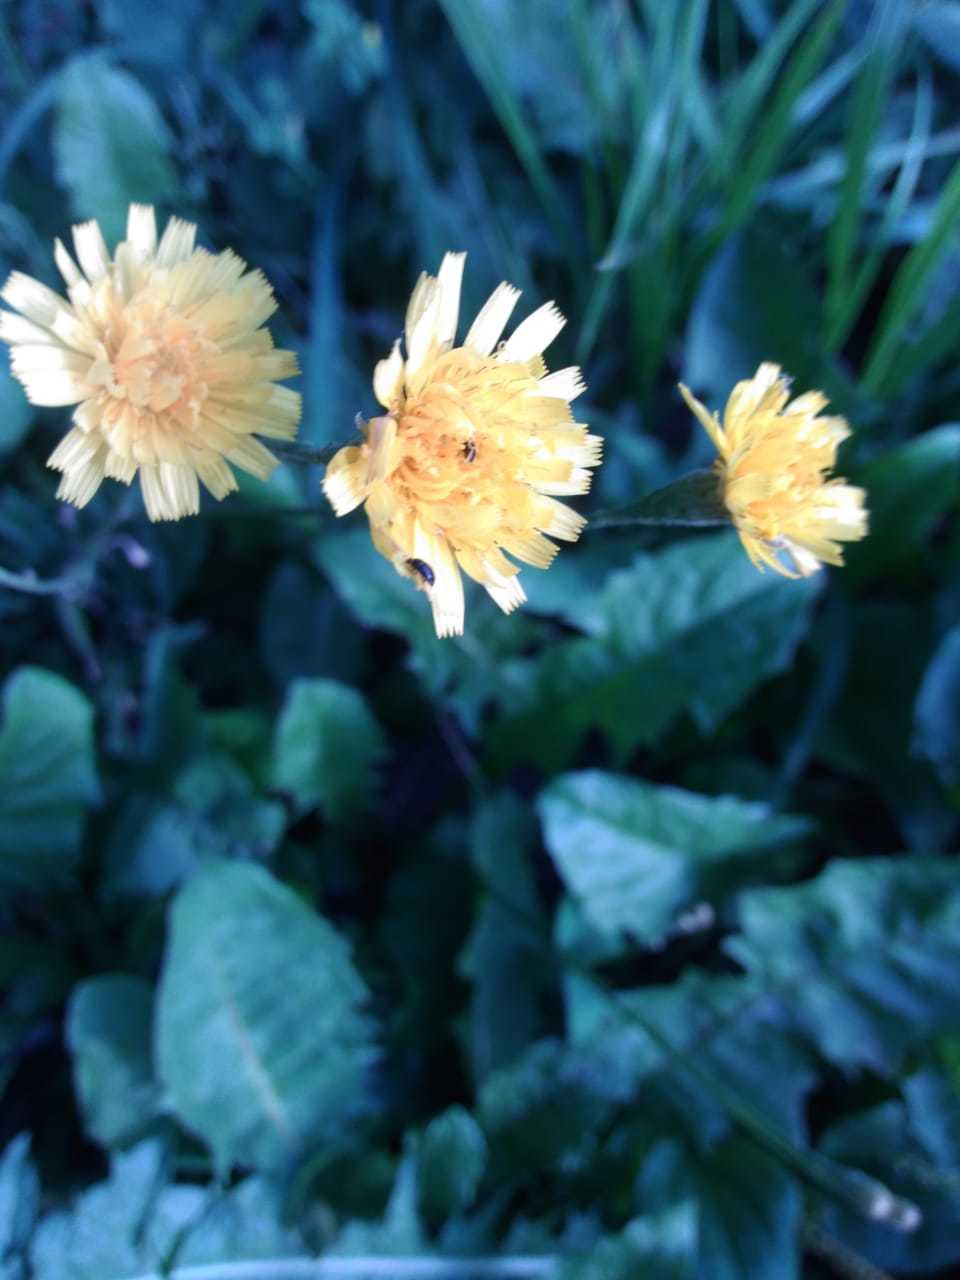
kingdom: Plantae
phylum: Tracheophyta
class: Magnoliopsida
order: Asterales
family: Asteraceae
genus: Scorzoneroides
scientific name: Scorzoneroides autumnalis
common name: Autumn hawkbit
